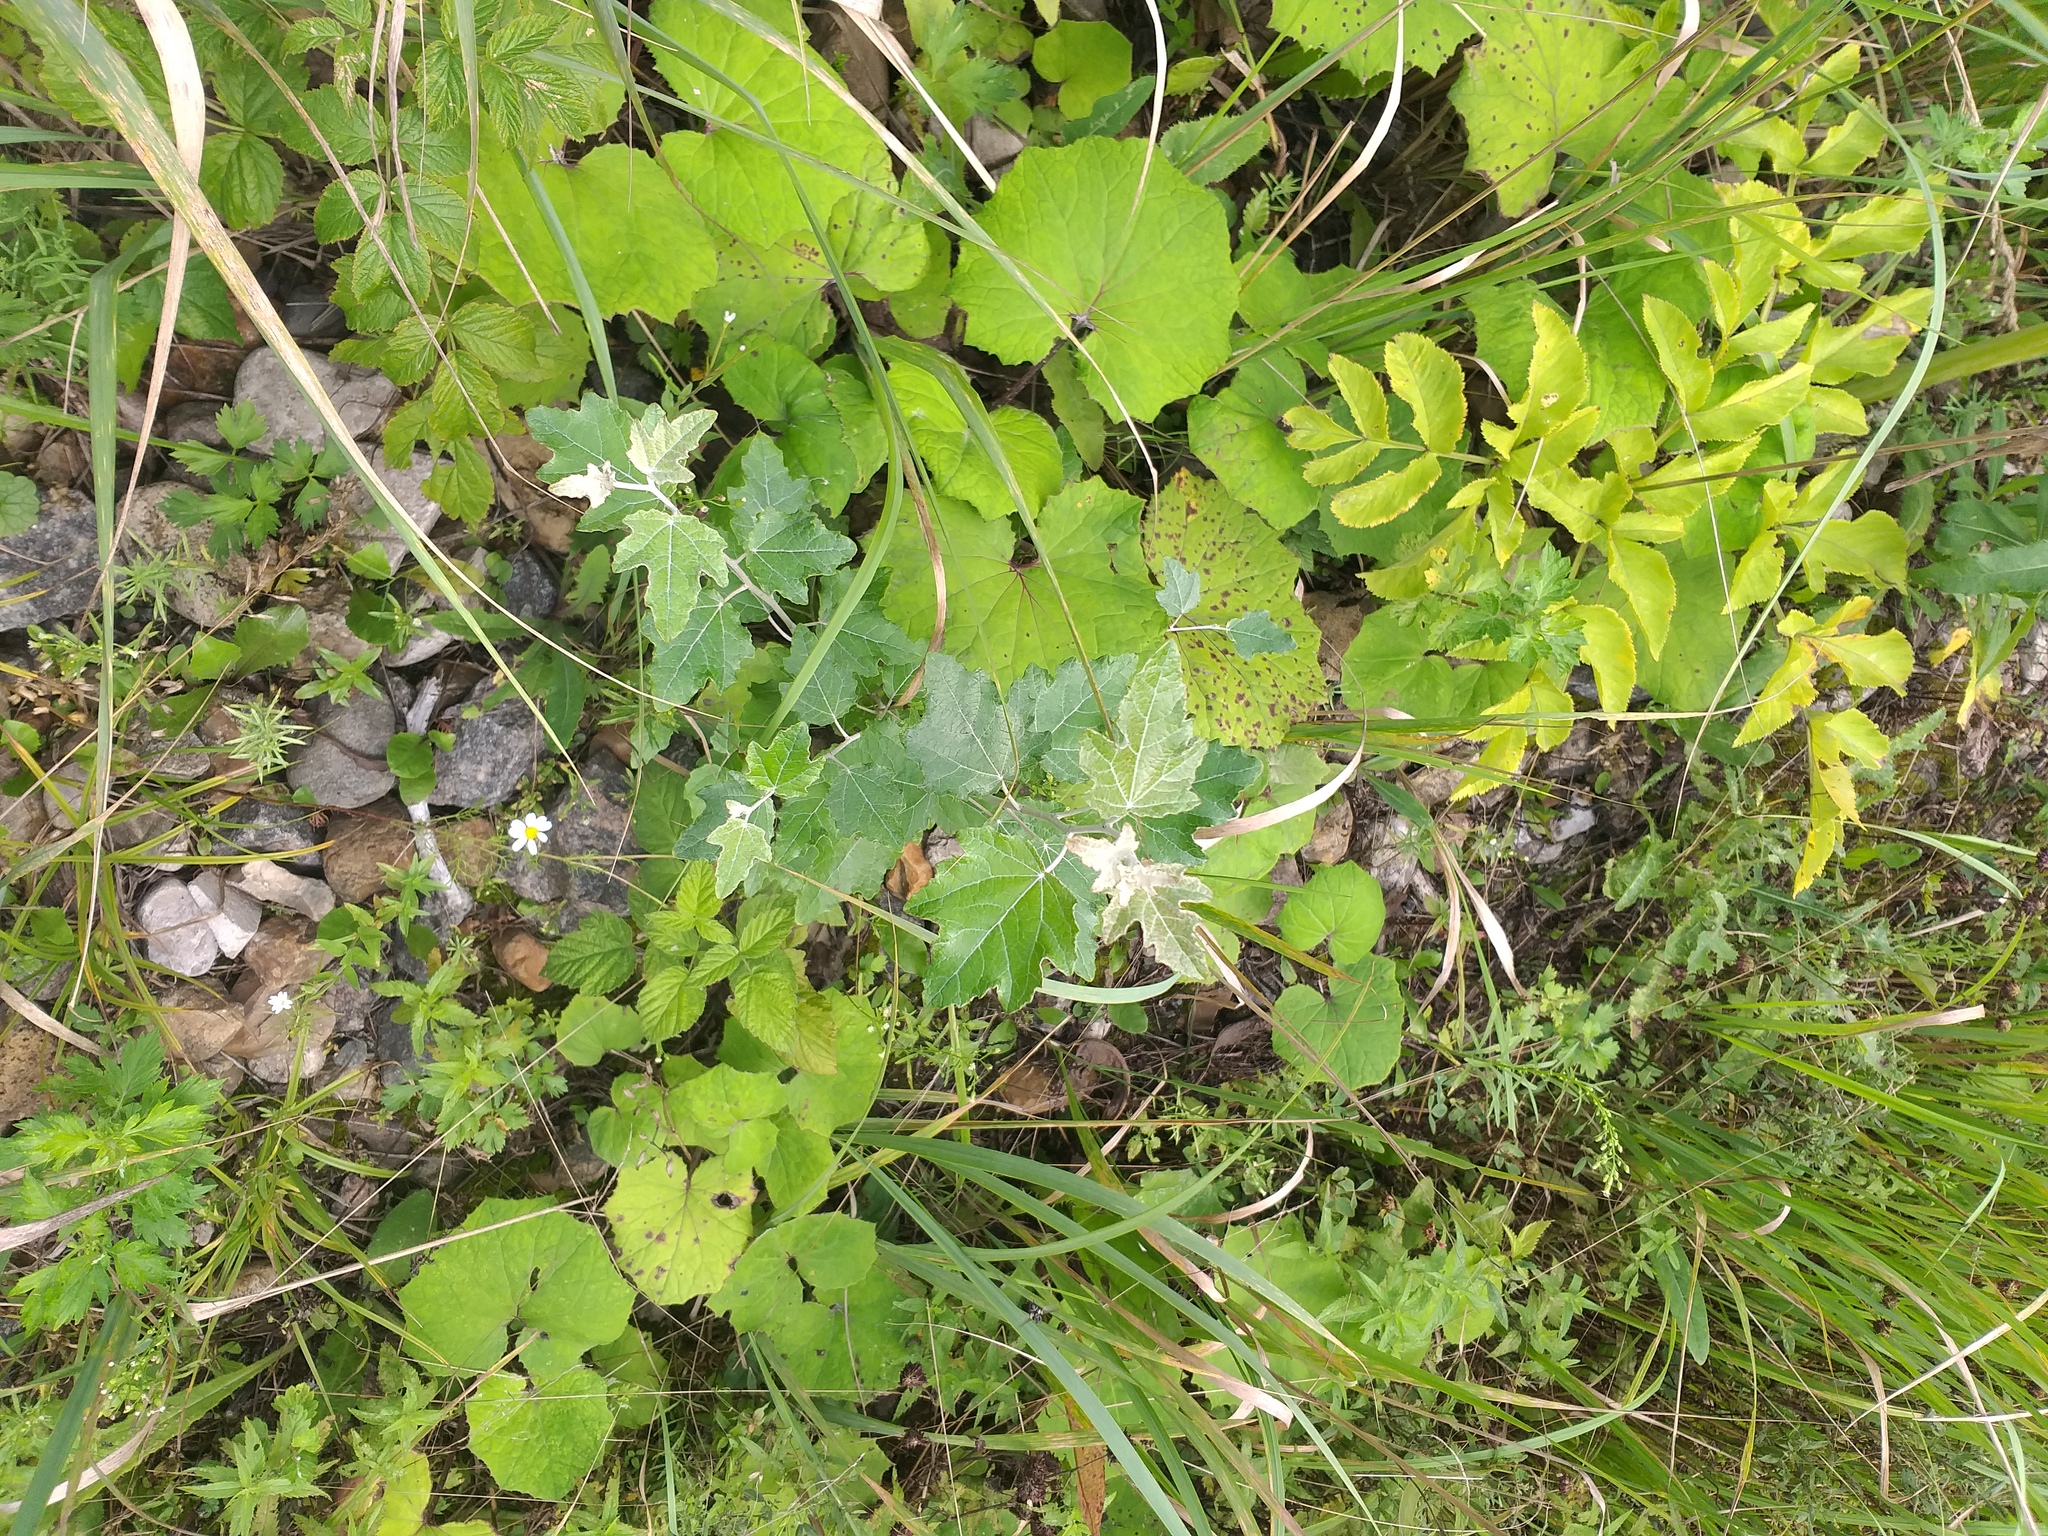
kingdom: Plantae
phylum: Tracheophyta
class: Magnoliopsida
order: Malpighiales
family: Salicaceae
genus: Populus
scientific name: Populus alba
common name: White poplar
